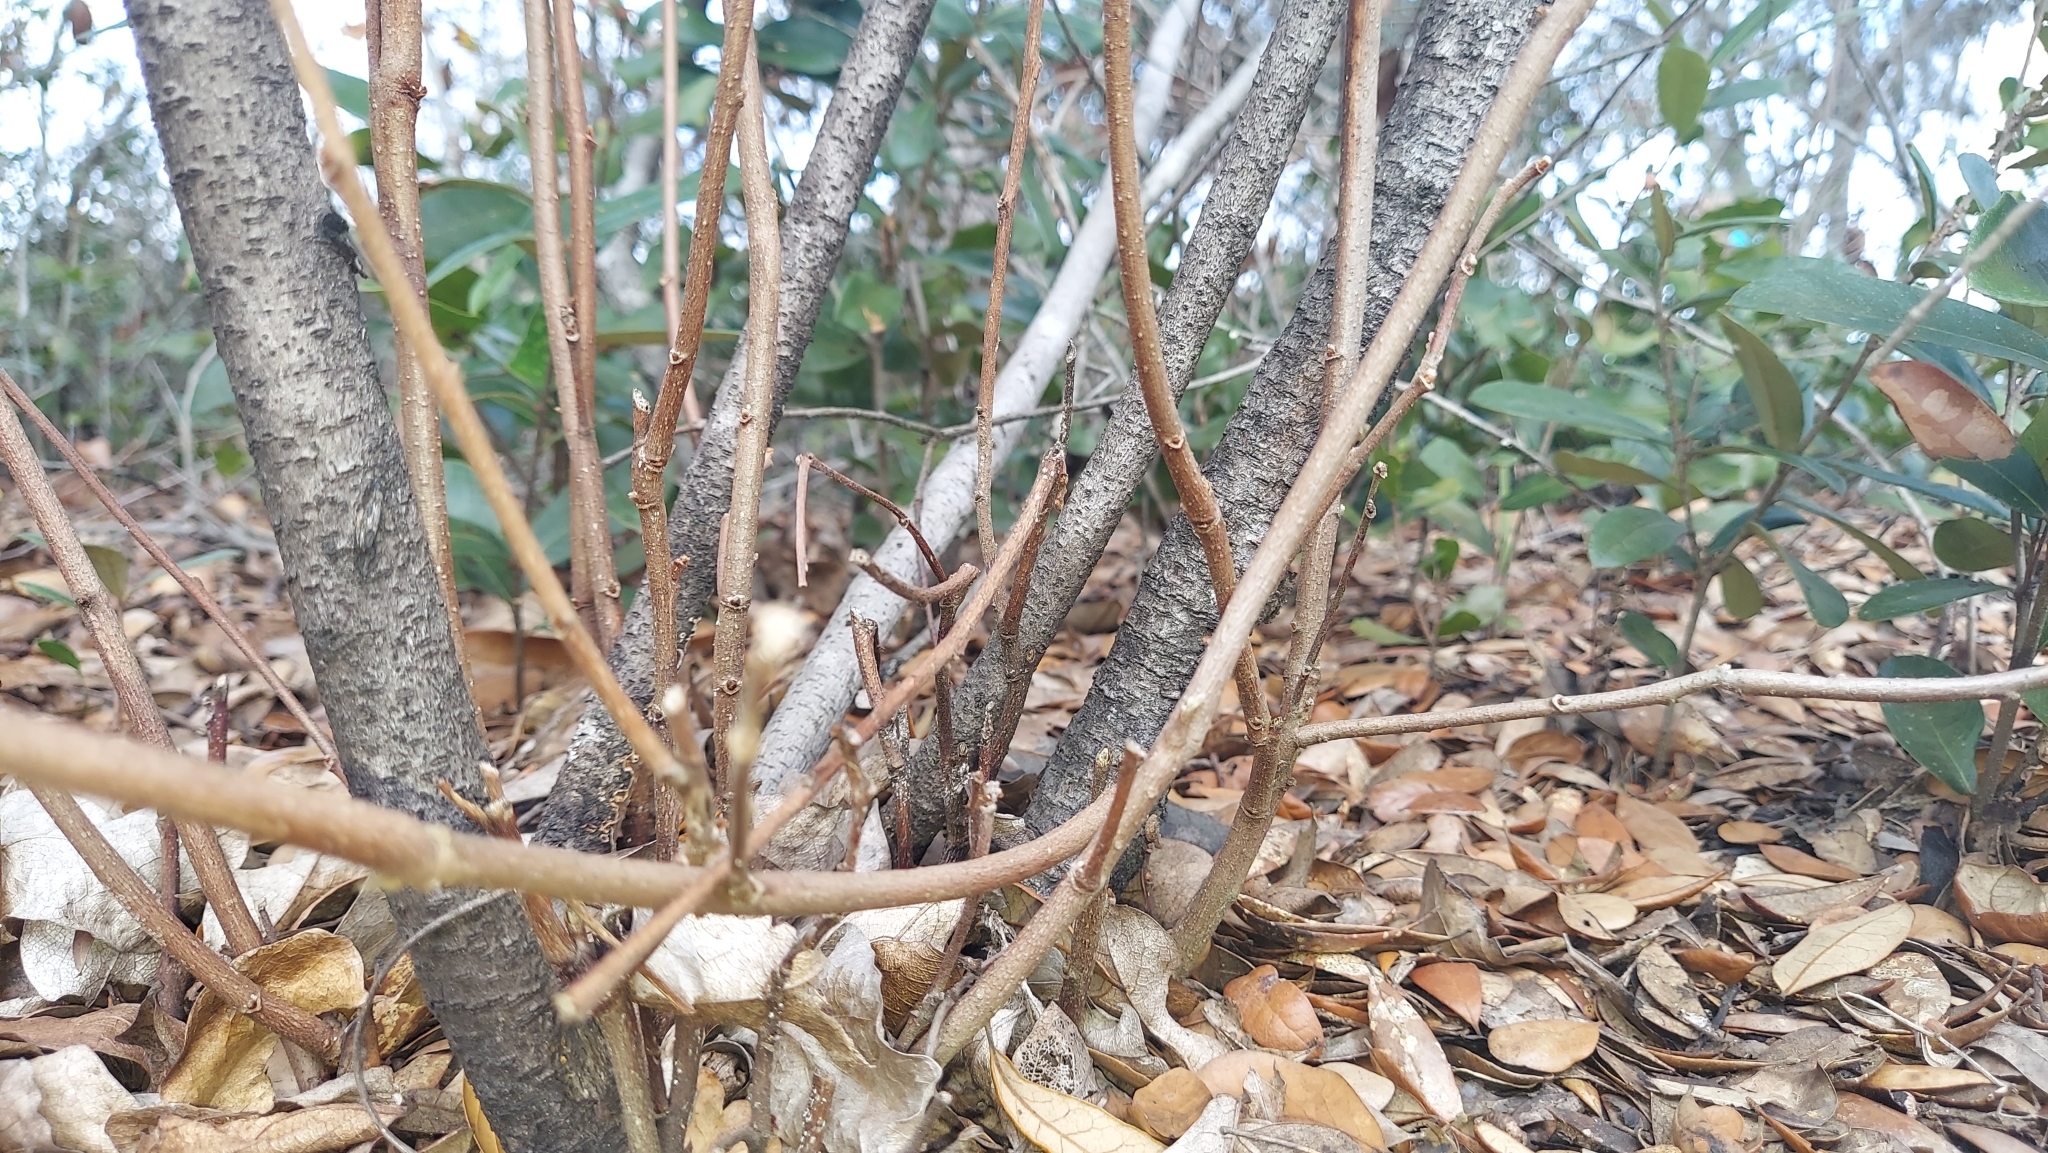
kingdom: Plantae
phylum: Tracheophyta
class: Magnoliopsida
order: Magnoliales
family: Annonaceae
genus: Asimina
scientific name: Asimina obovata
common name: Flag pawpaw
